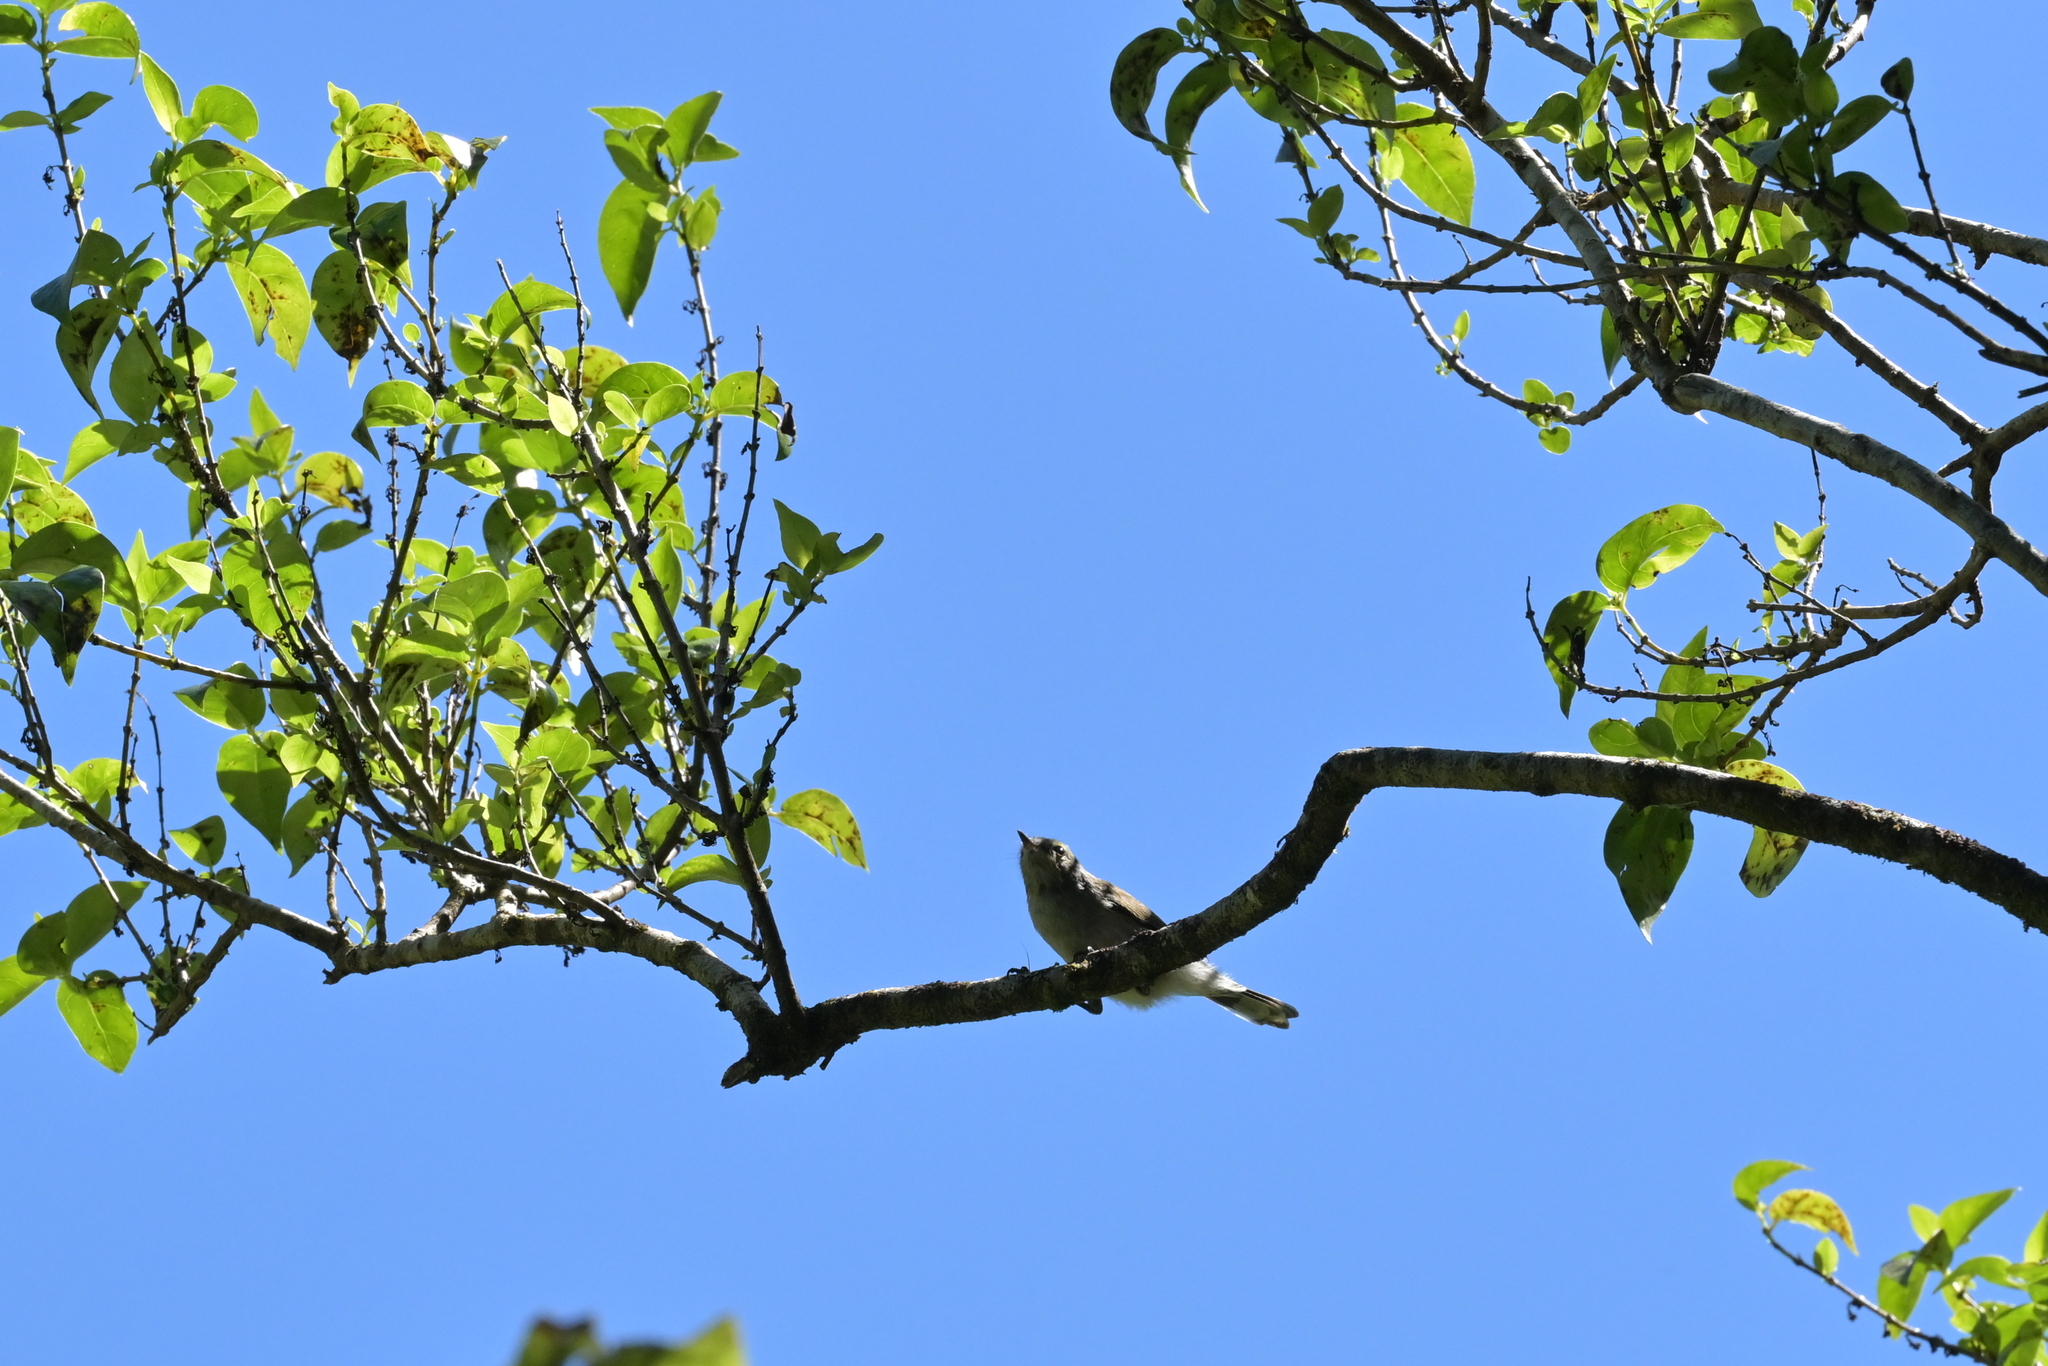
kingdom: Animalia
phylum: Chordata
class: Aves
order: Passeriformes
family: Acanthizidae
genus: Gerygone
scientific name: Gerygone igata
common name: Grey gerygone
